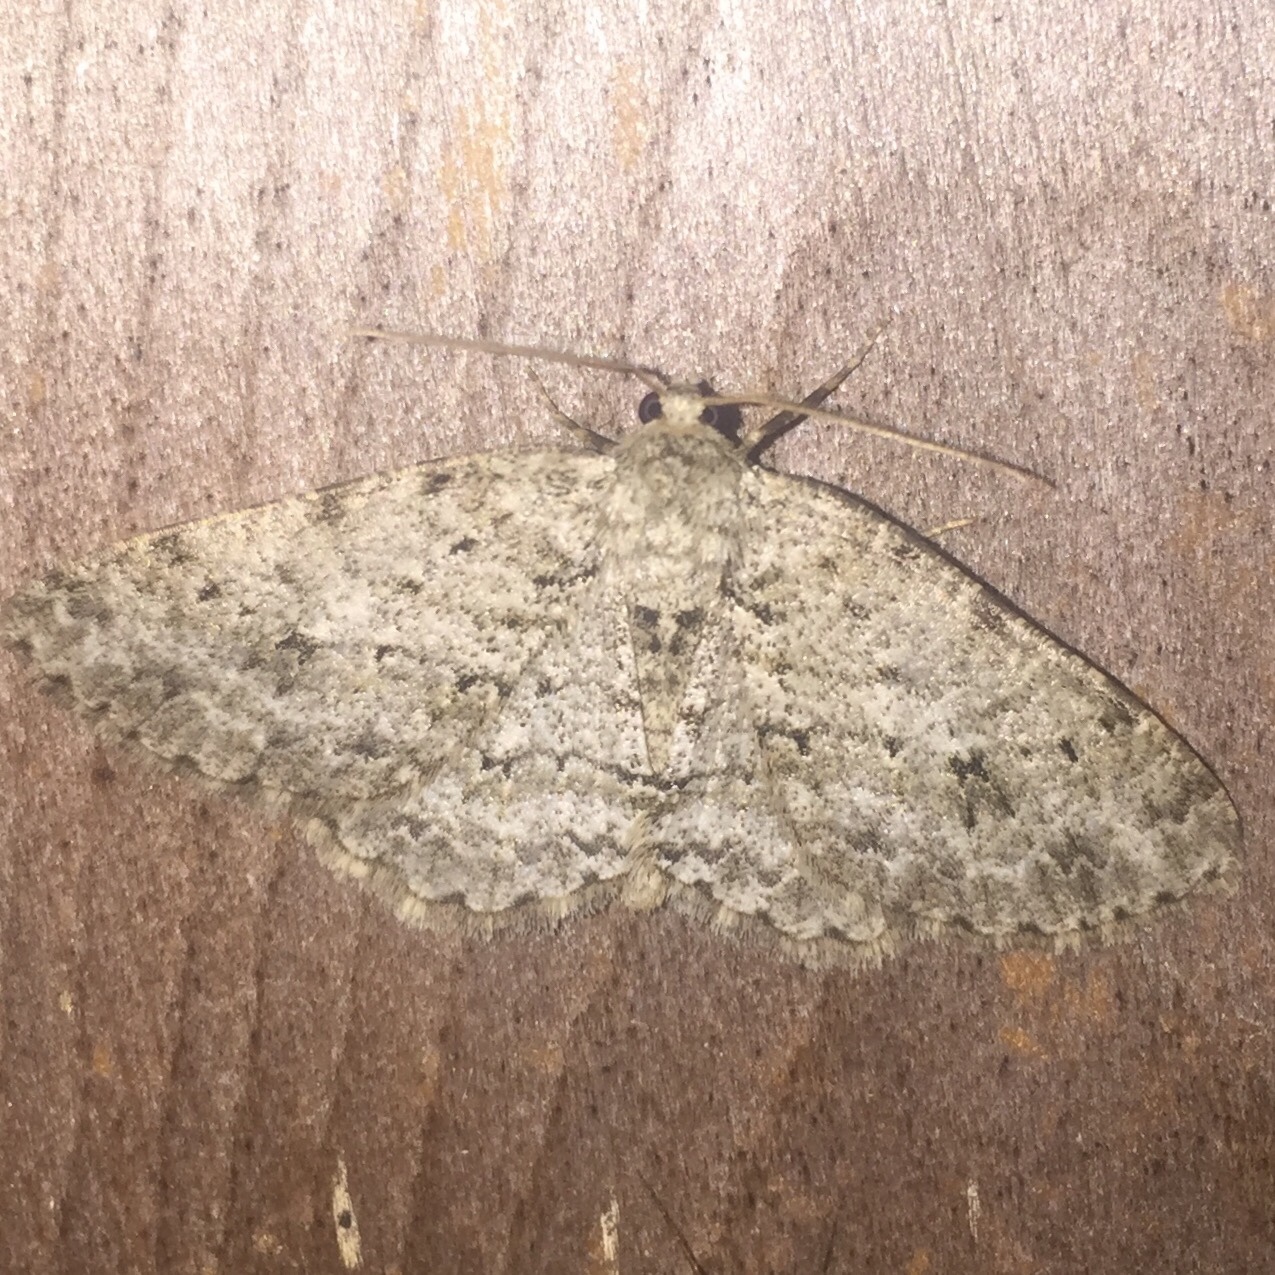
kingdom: Animalia
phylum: Arthropoda
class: Insecta
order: Lepidoptera
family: Geometridae
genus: Ectropis
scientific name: Ectropis crepuscularia
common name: Engrailed
